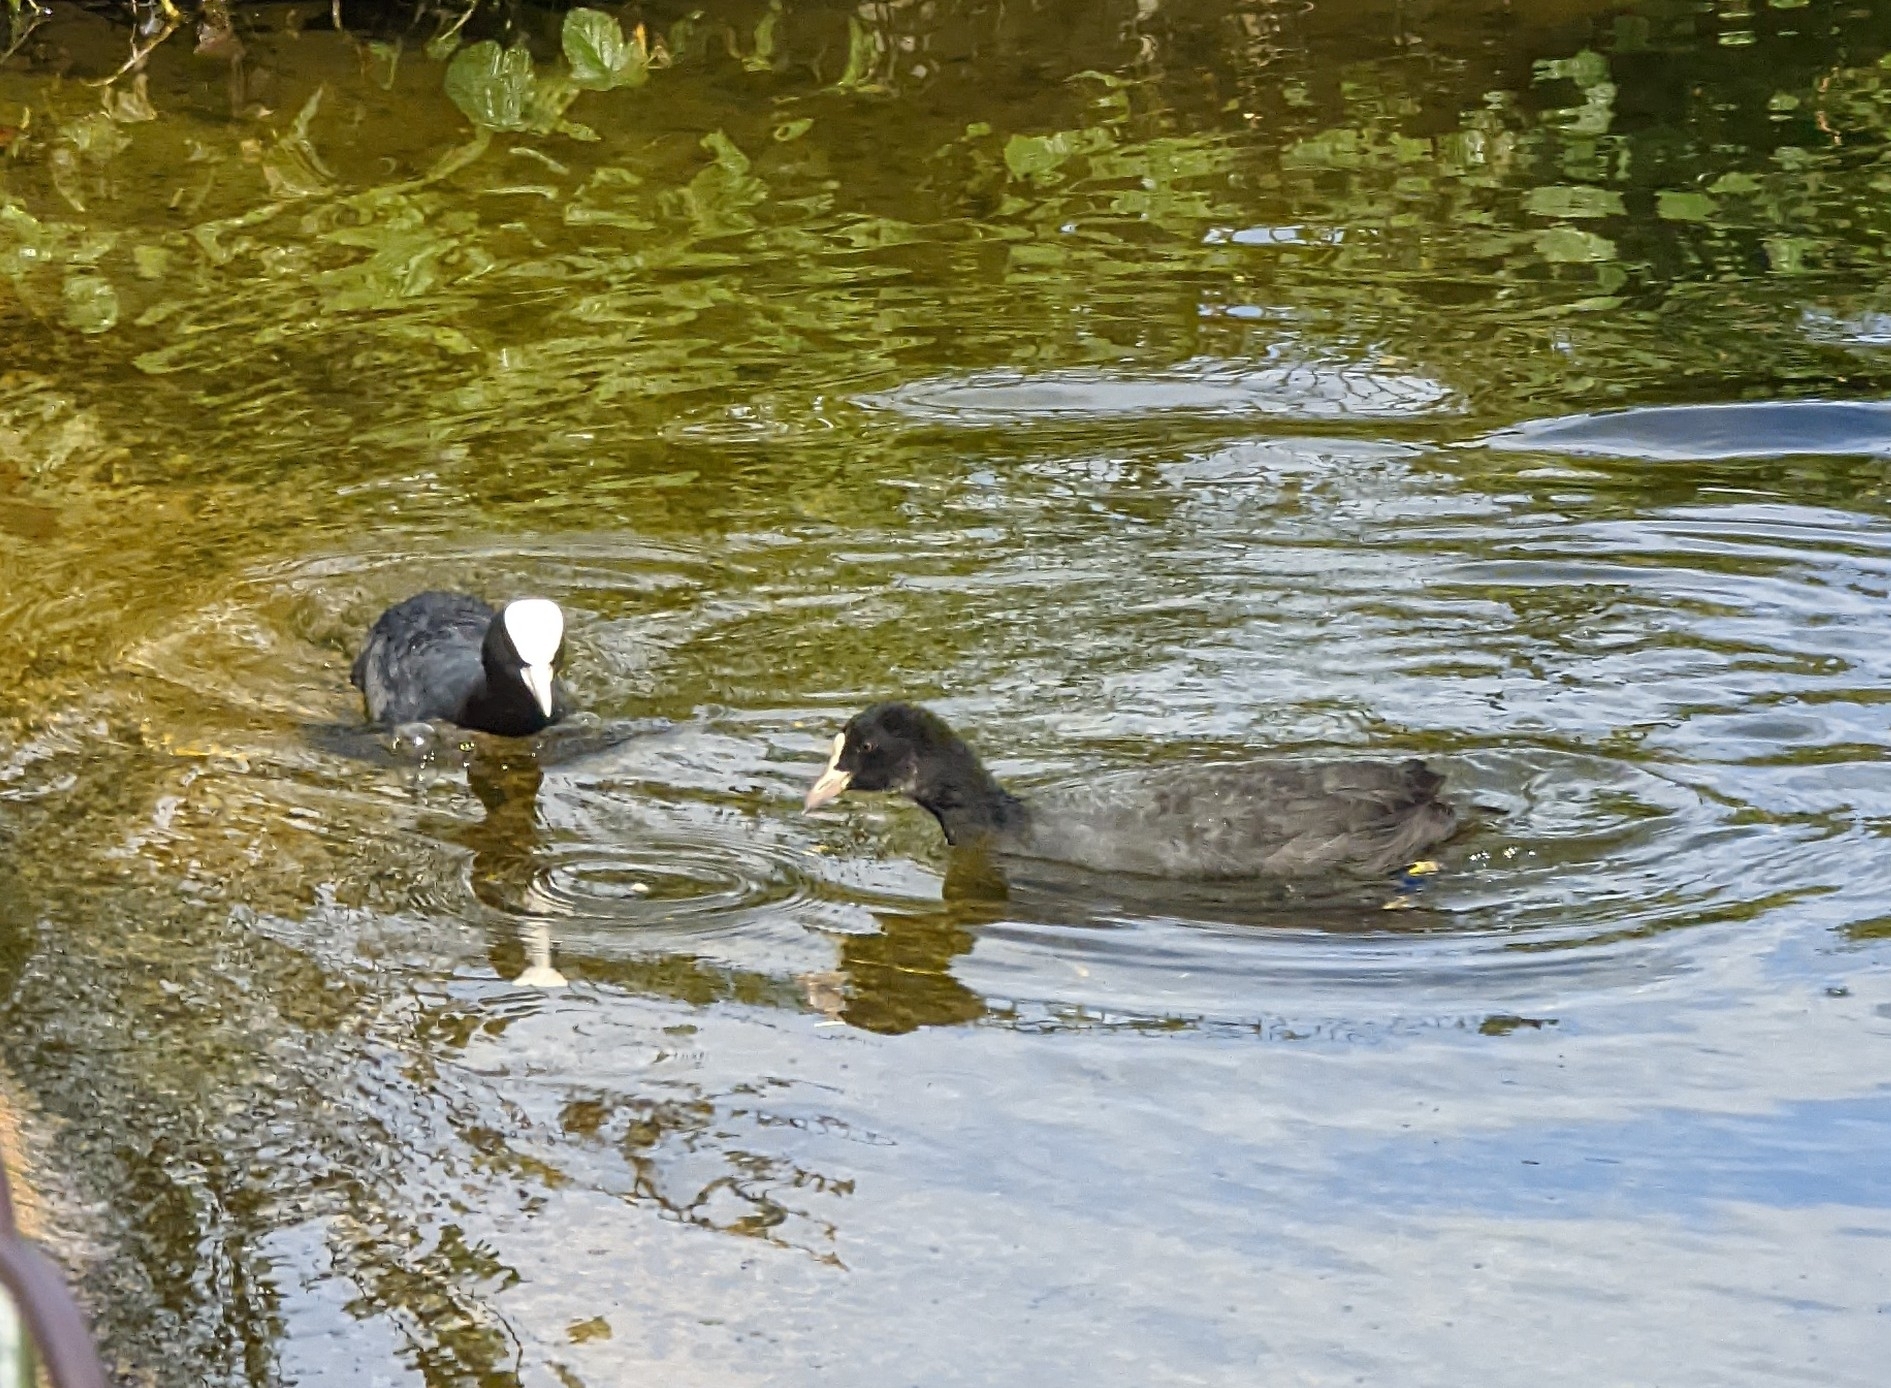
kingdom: Animalia
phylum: Chordata
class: Aves
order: Gruiformes
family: Rallidae
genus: Fulica
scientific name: Fulica atra
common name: Eurasian coot
